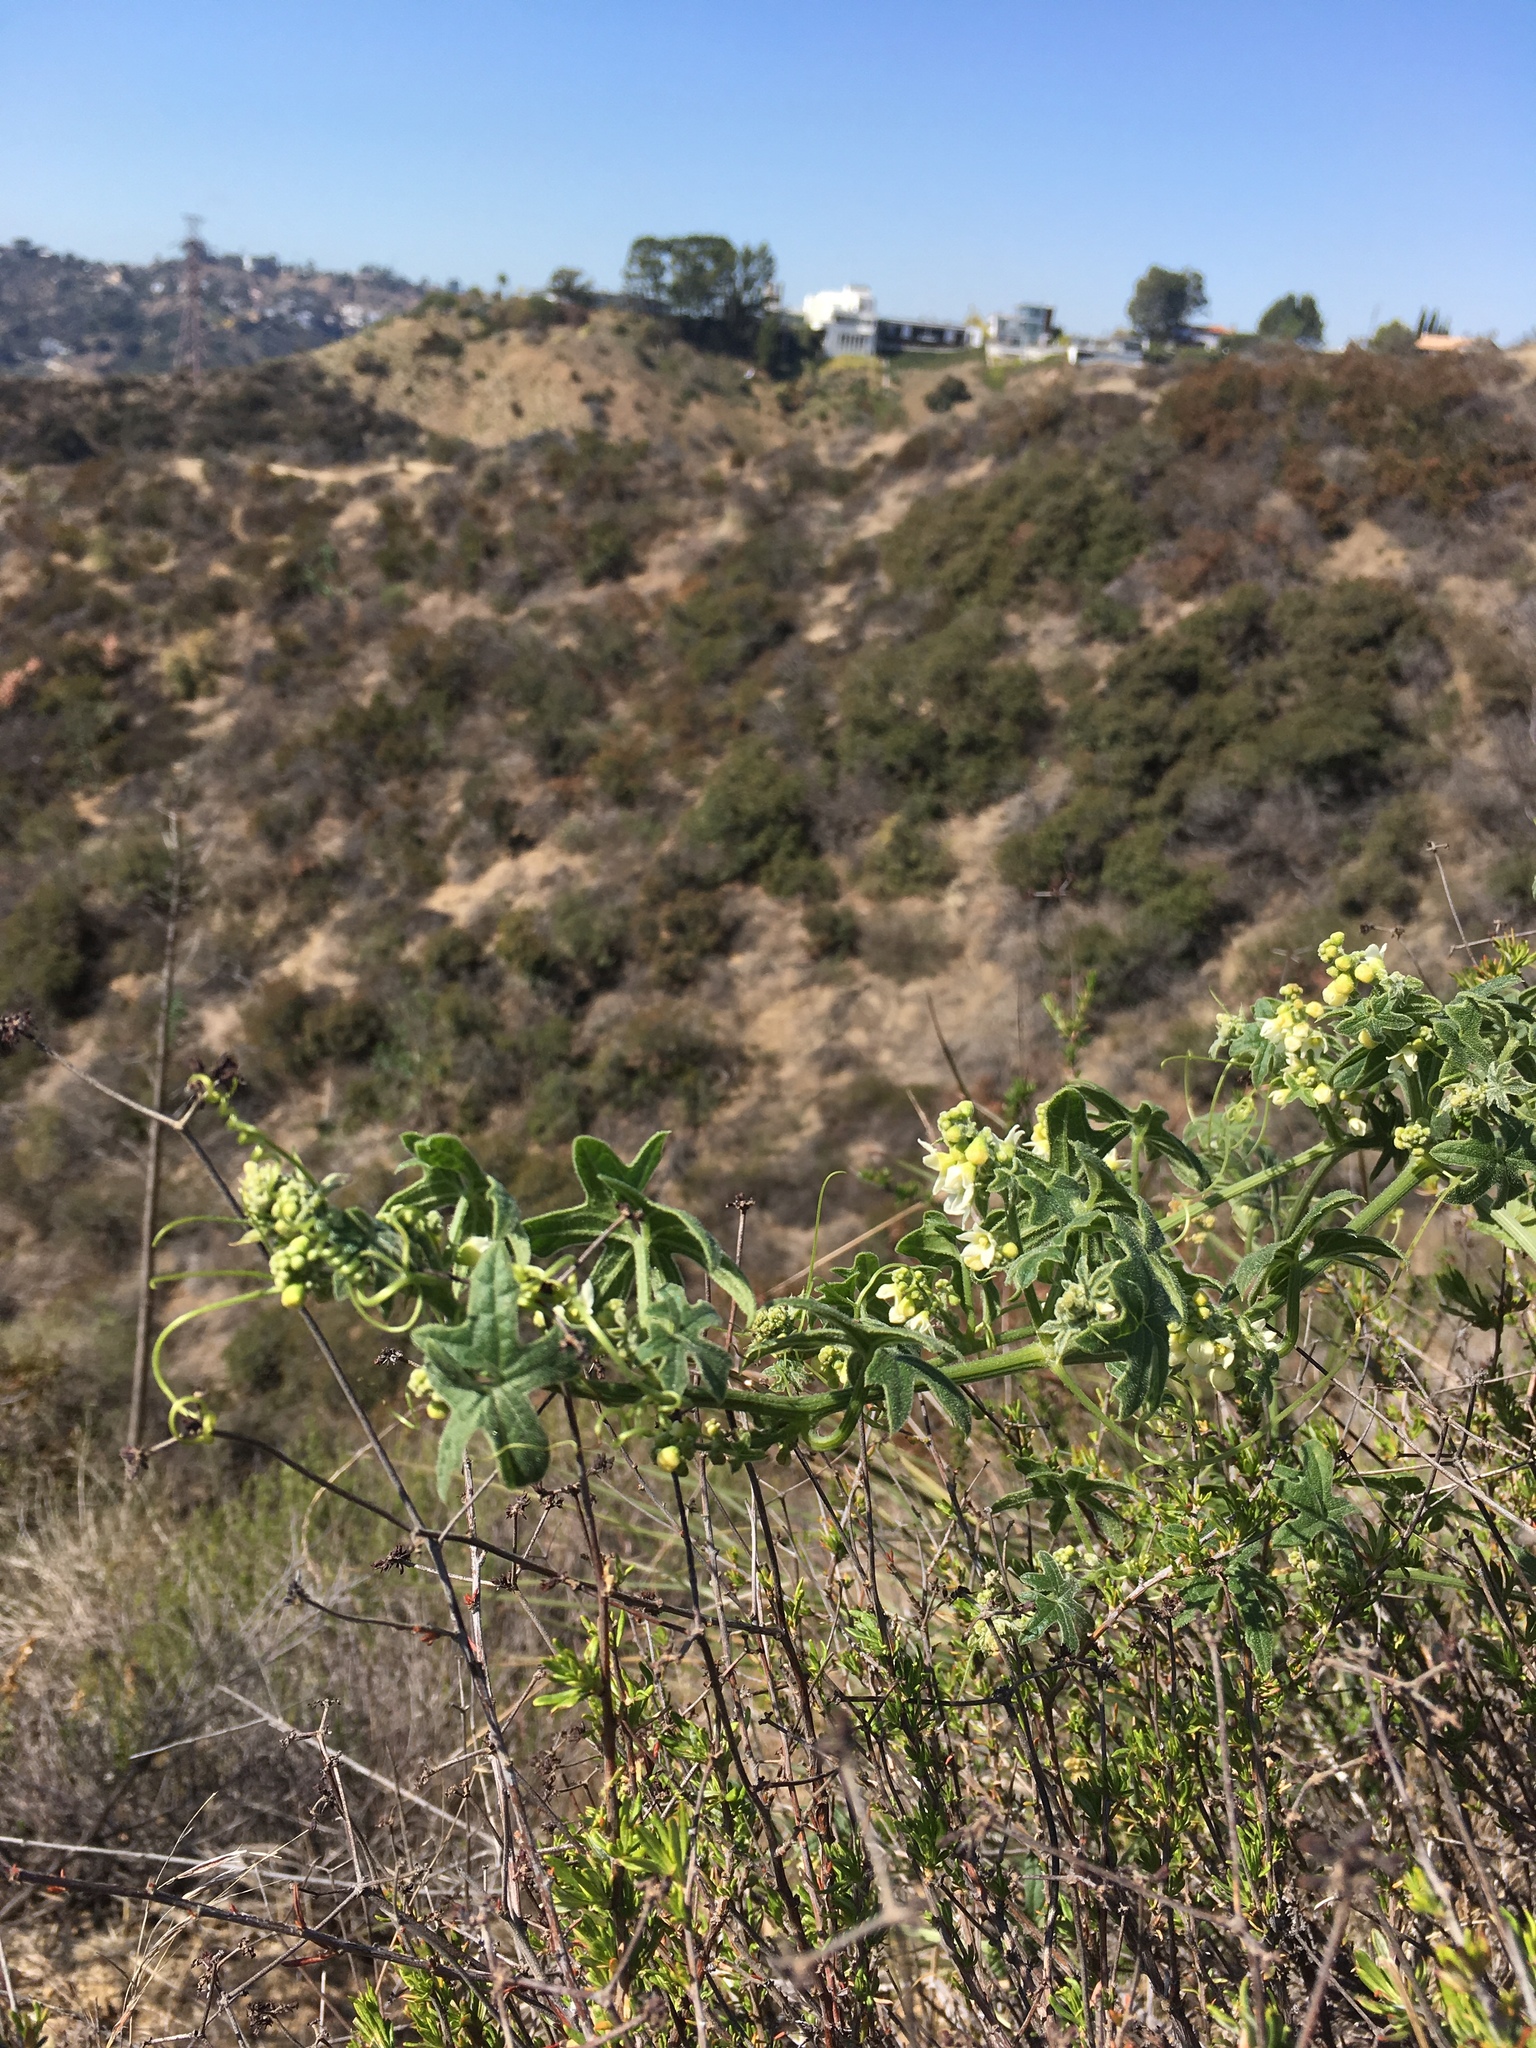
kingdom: Plantae
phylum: Tracheophyta
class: Magnoliopsida
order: Cucurbitales
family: Cucurbitaceae
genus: Marah
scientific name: Marah macrocarpa
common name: Cucamonga manroot
